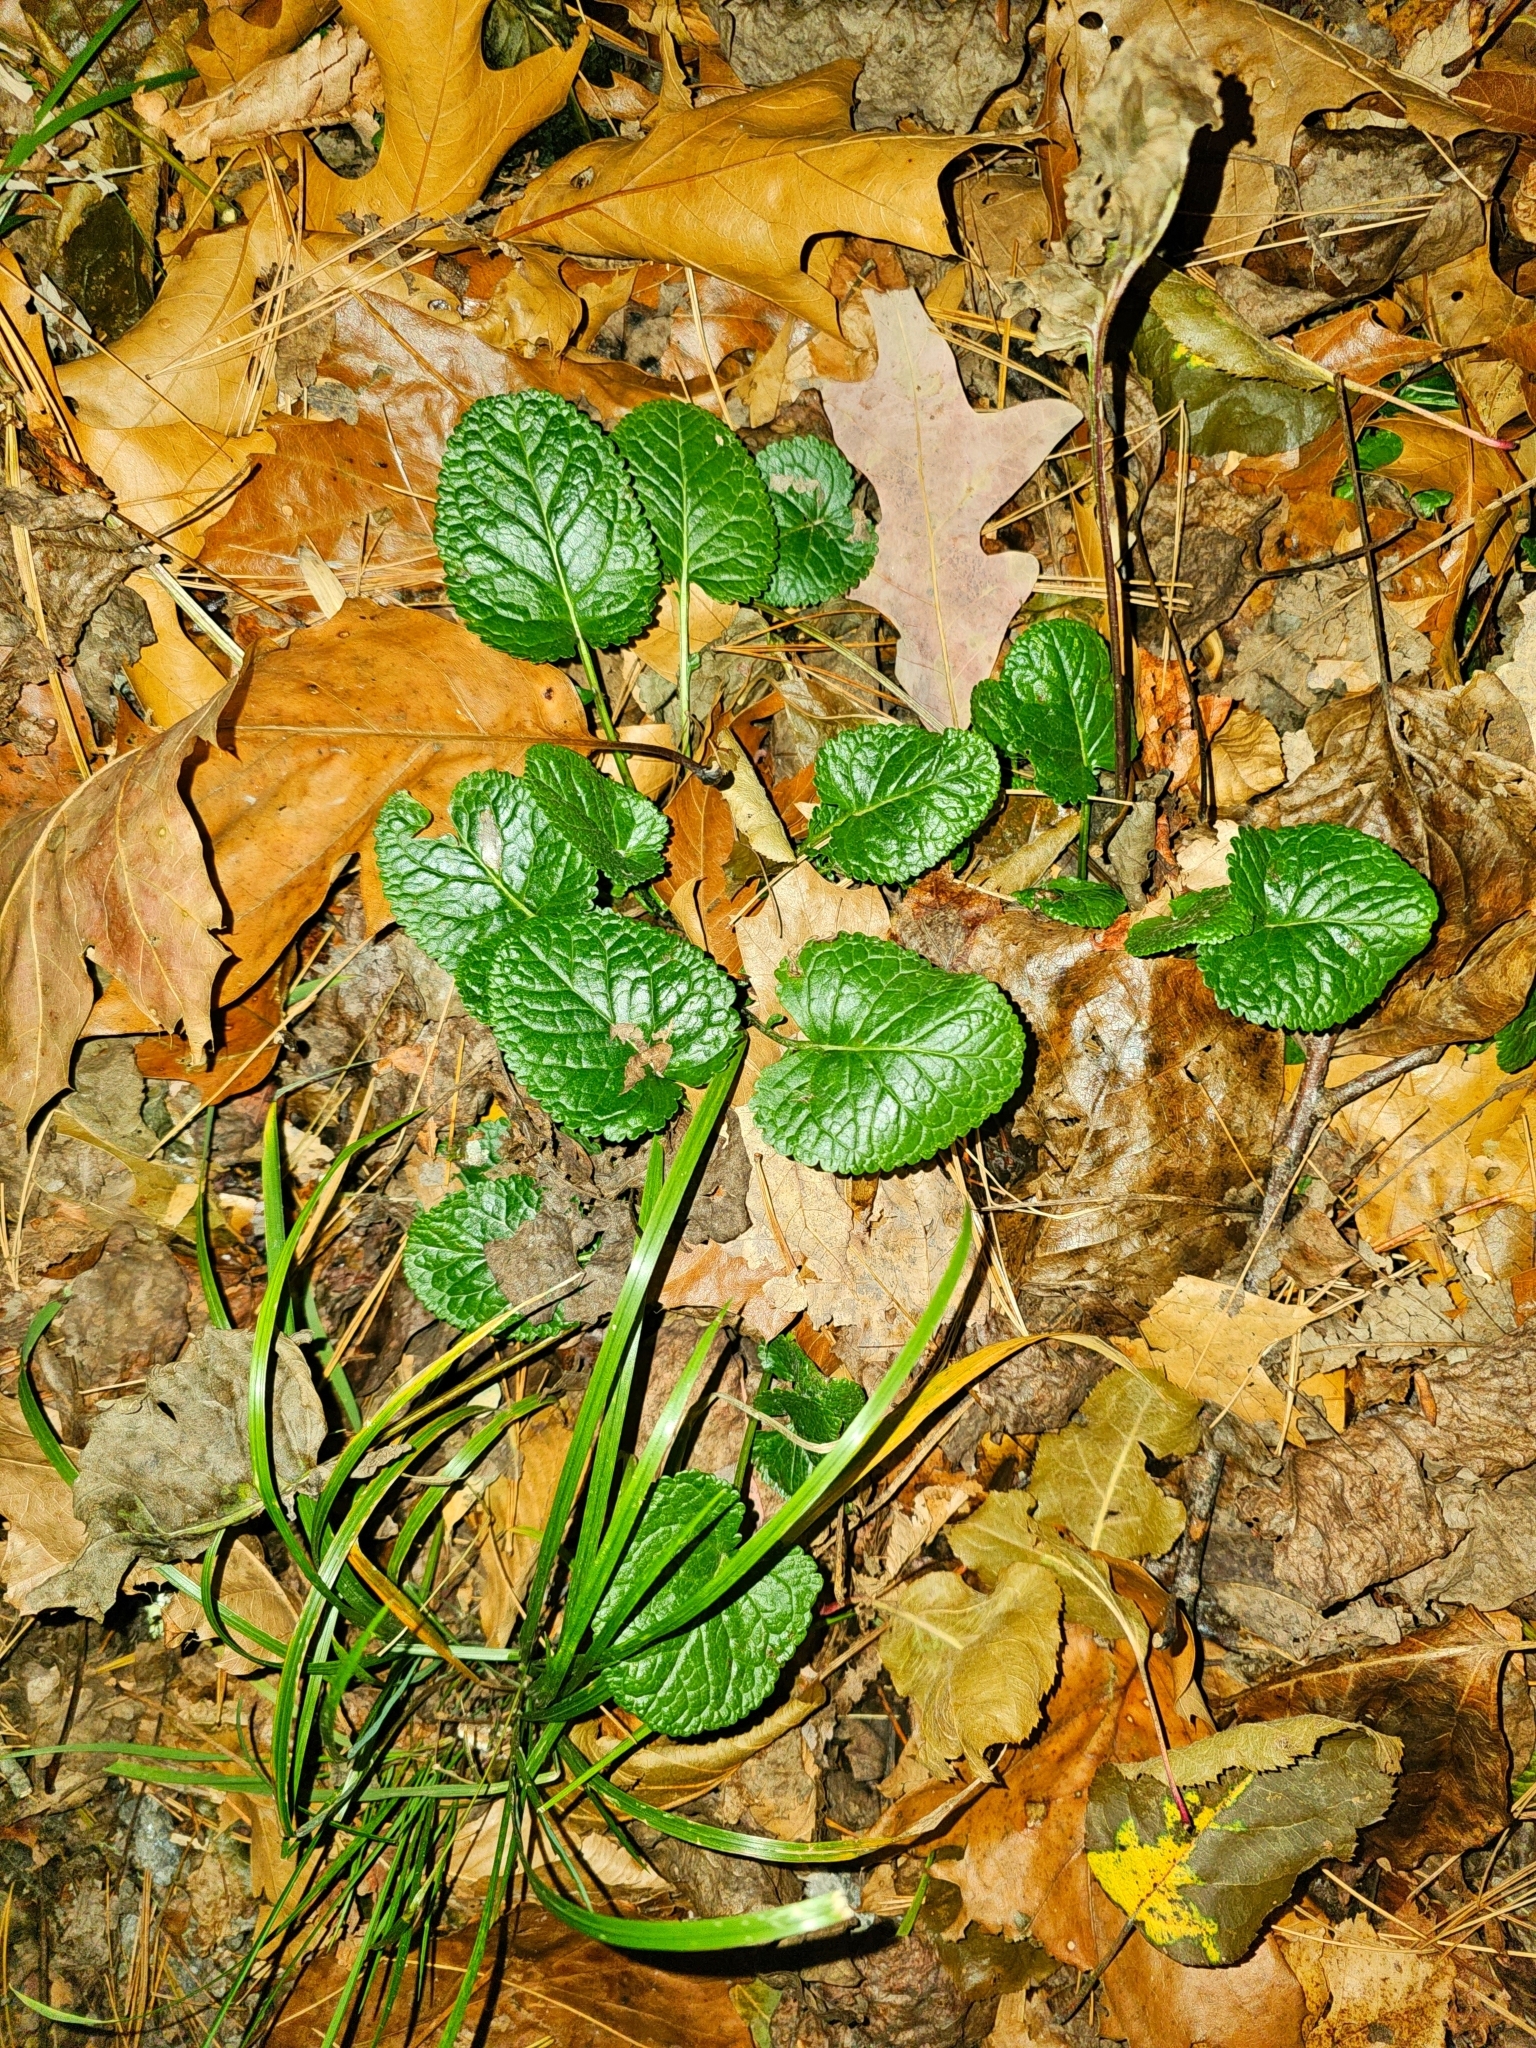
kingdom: Plantae
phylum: Tracheophyta
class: Magnoliopsida
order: Asterales
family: Asteraceae
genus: Packera
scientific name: Packera aurea
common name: Golden groundsel
